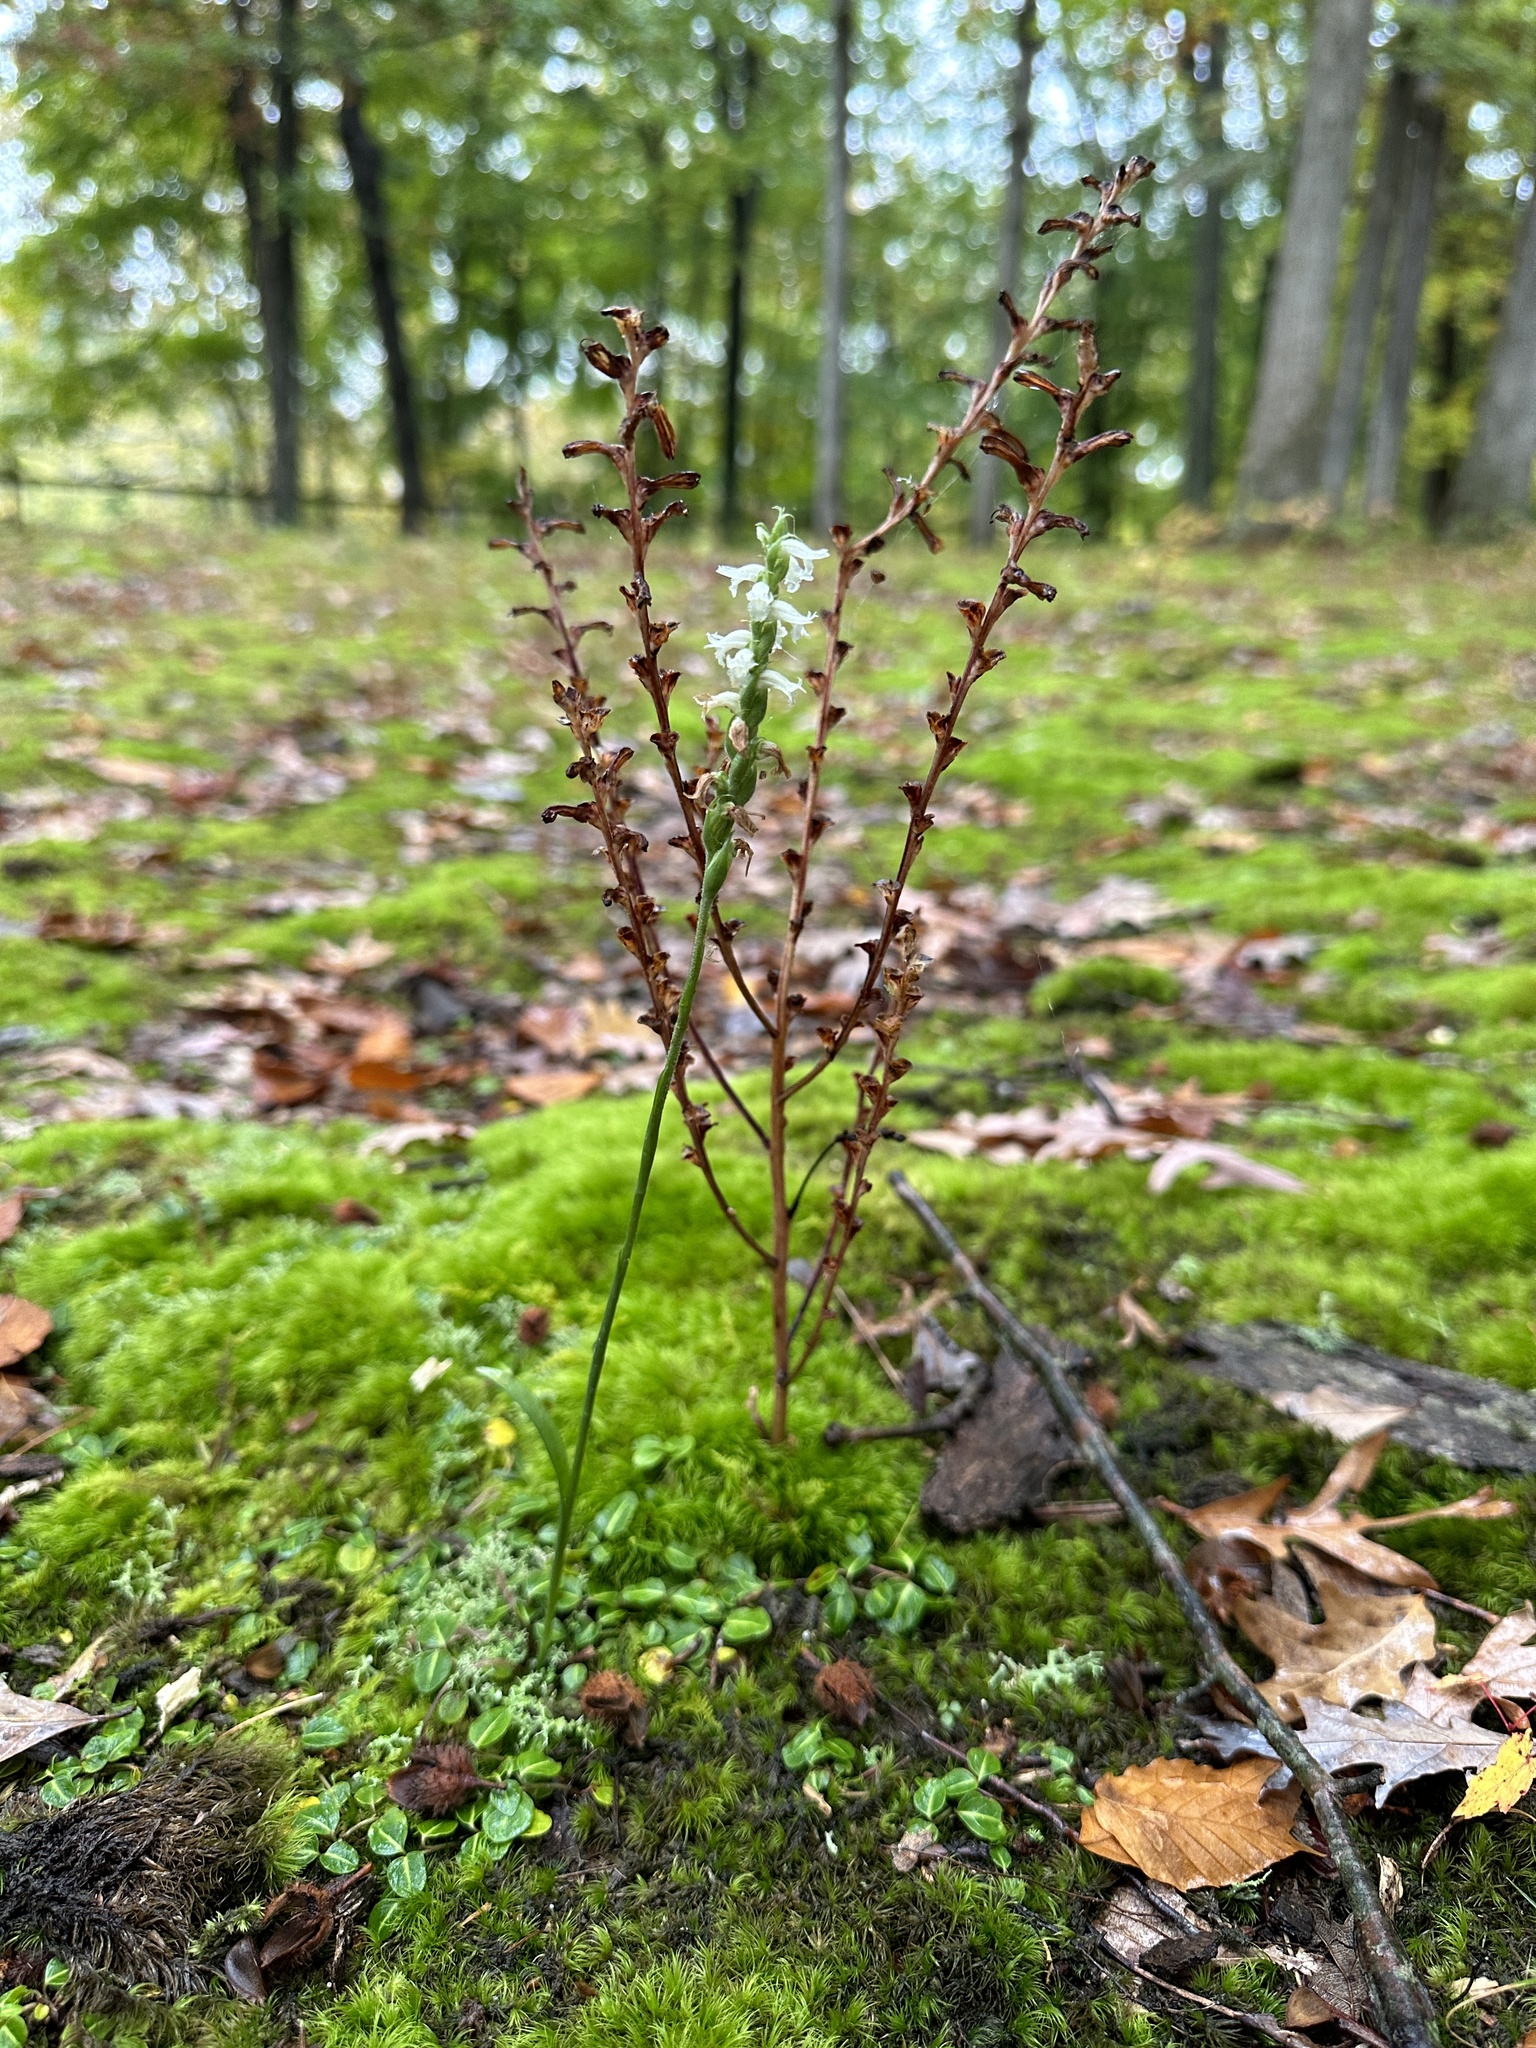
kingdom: Plantae
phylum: Tracheophyta
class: Magnoliopsida
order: Lamiales
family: Orobanchaceae
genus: Epifagus
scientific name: Epifagus virginiana
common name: Beechdrops
